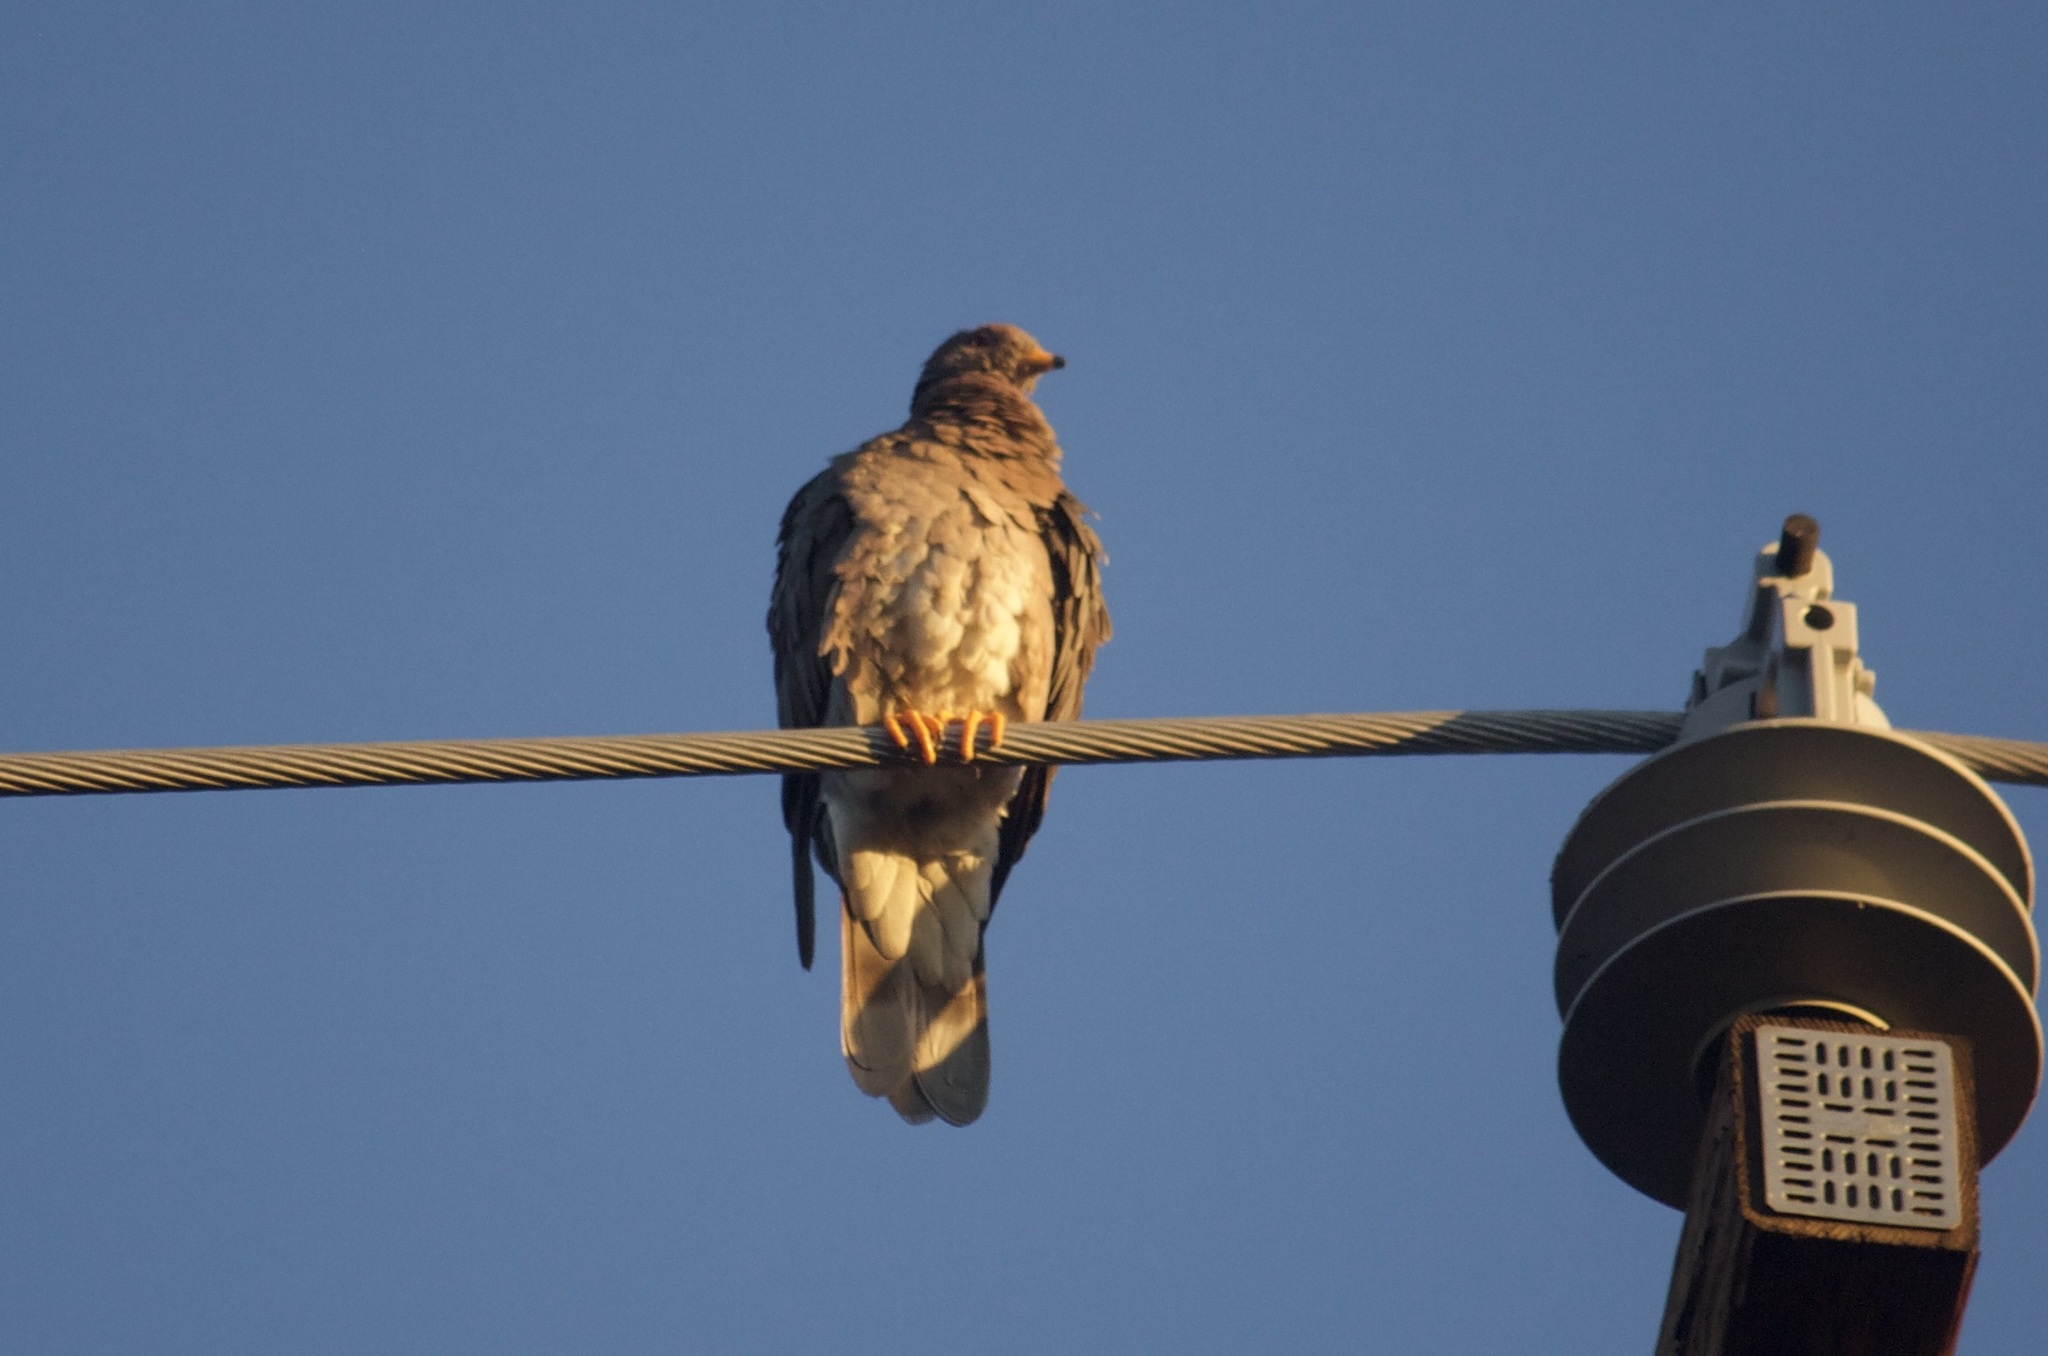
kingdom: Animalia
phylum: Chordata
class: Aves
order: Columbiformes
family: Columbidae
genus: Patagioenas
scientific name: Patagioenas fasciata
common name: Band-tailed pigeon
